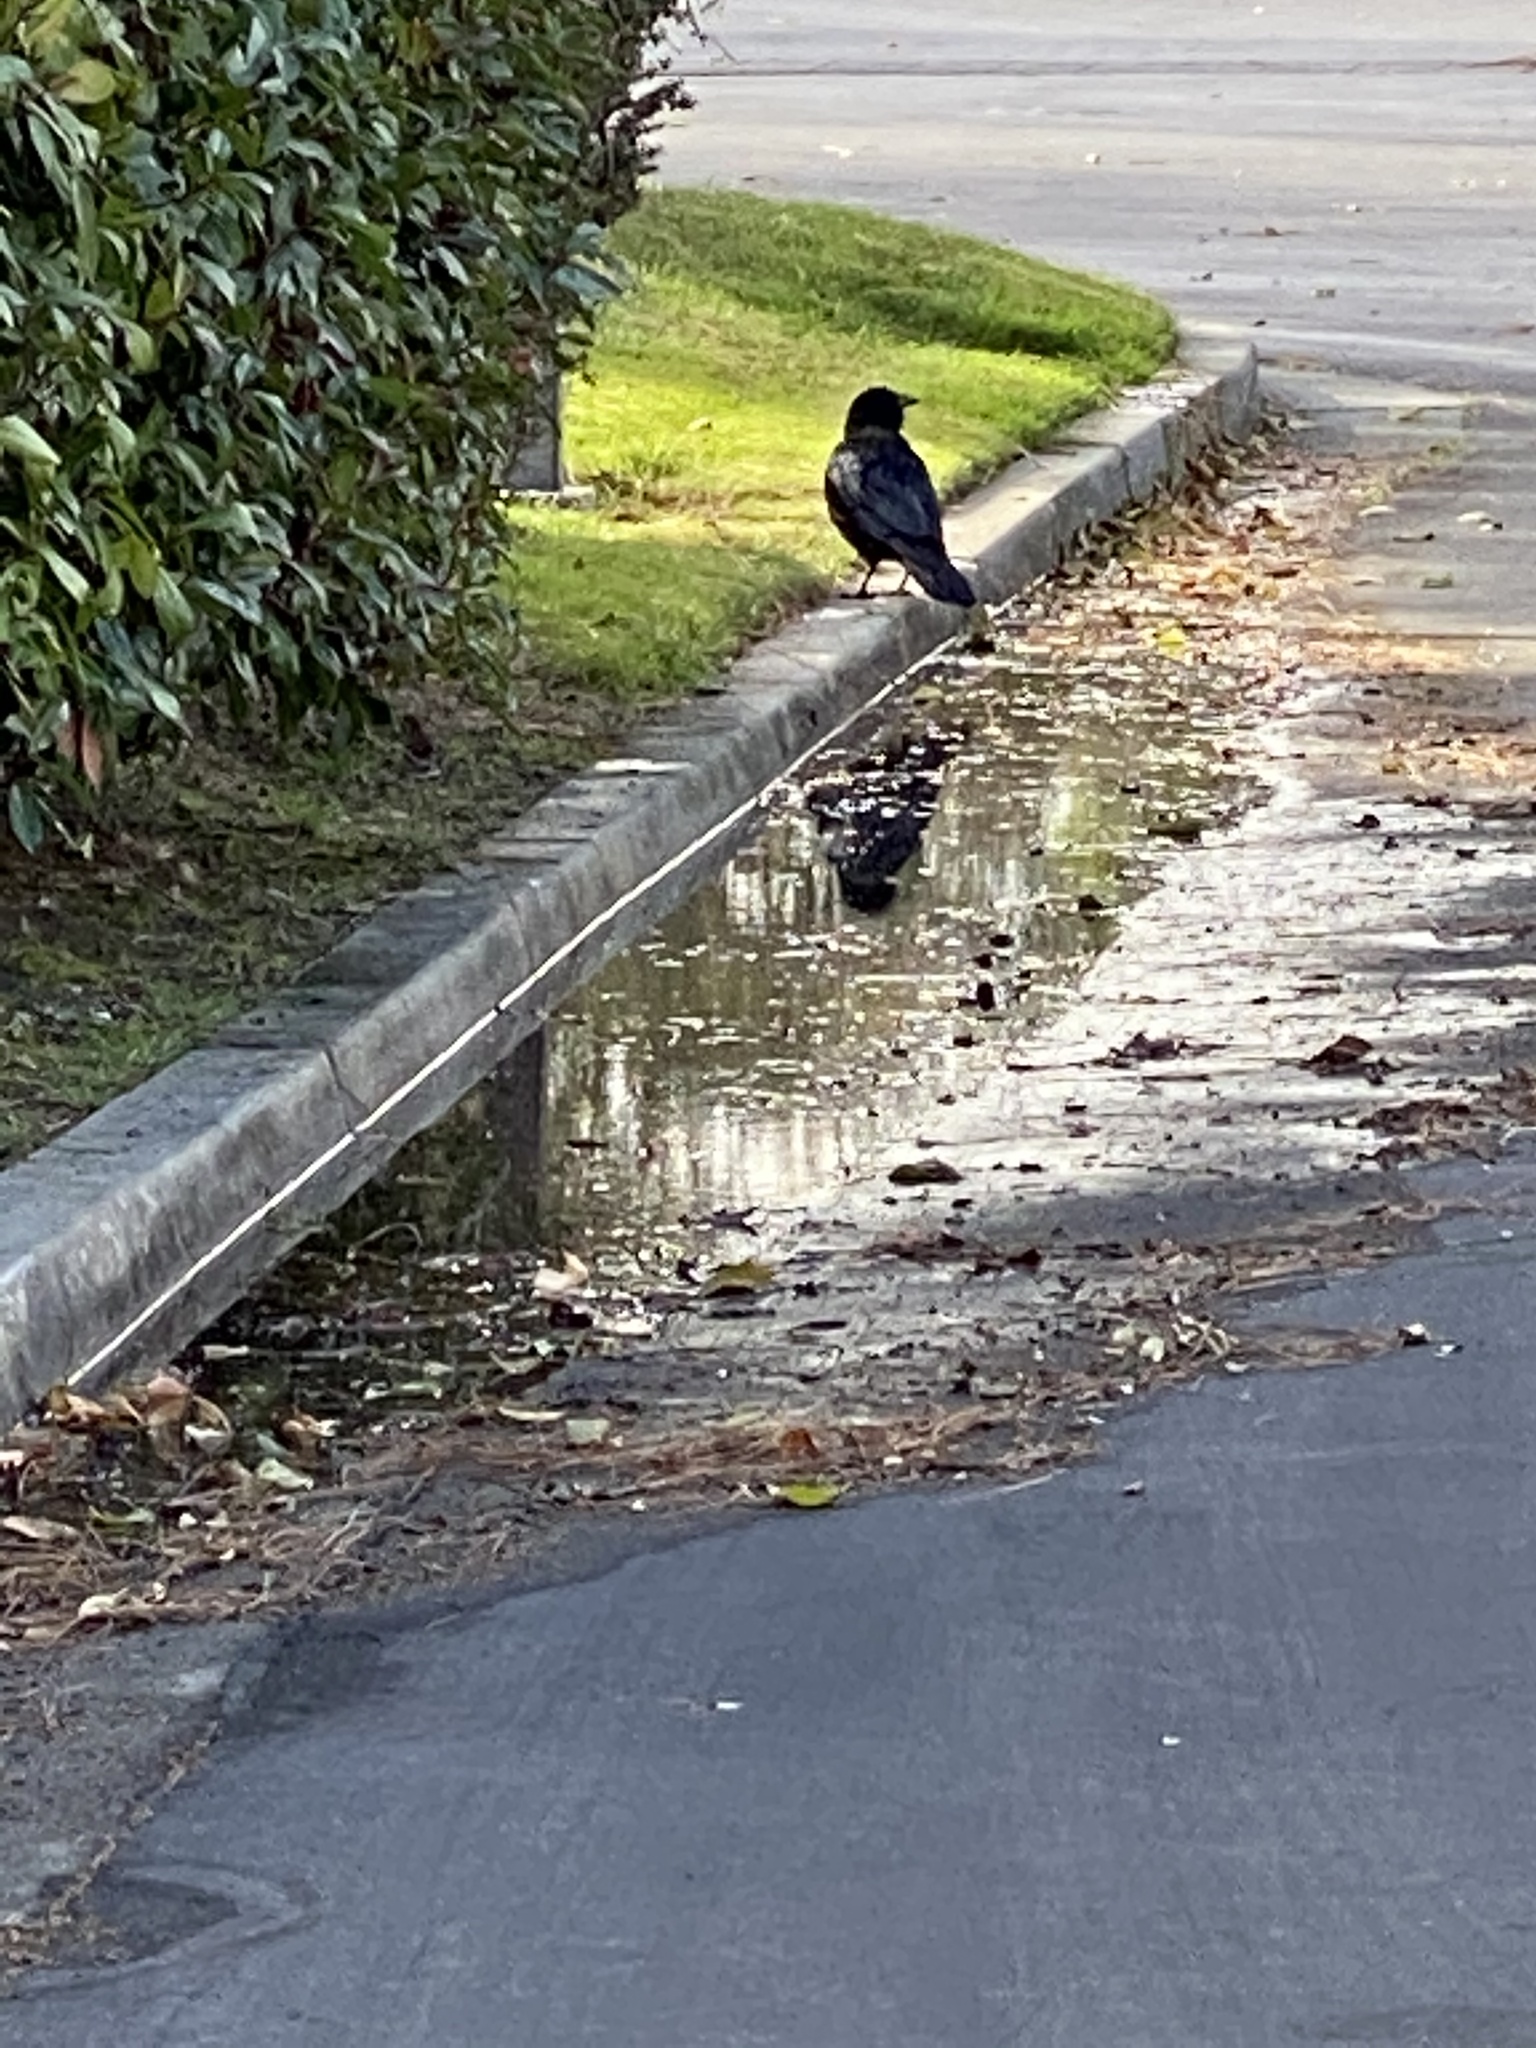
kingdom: Animalia
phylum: Chordata
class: Aves
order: Passeriformes
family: Corvidae
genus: Corvus
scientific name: Corvus corax
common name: Common raven
